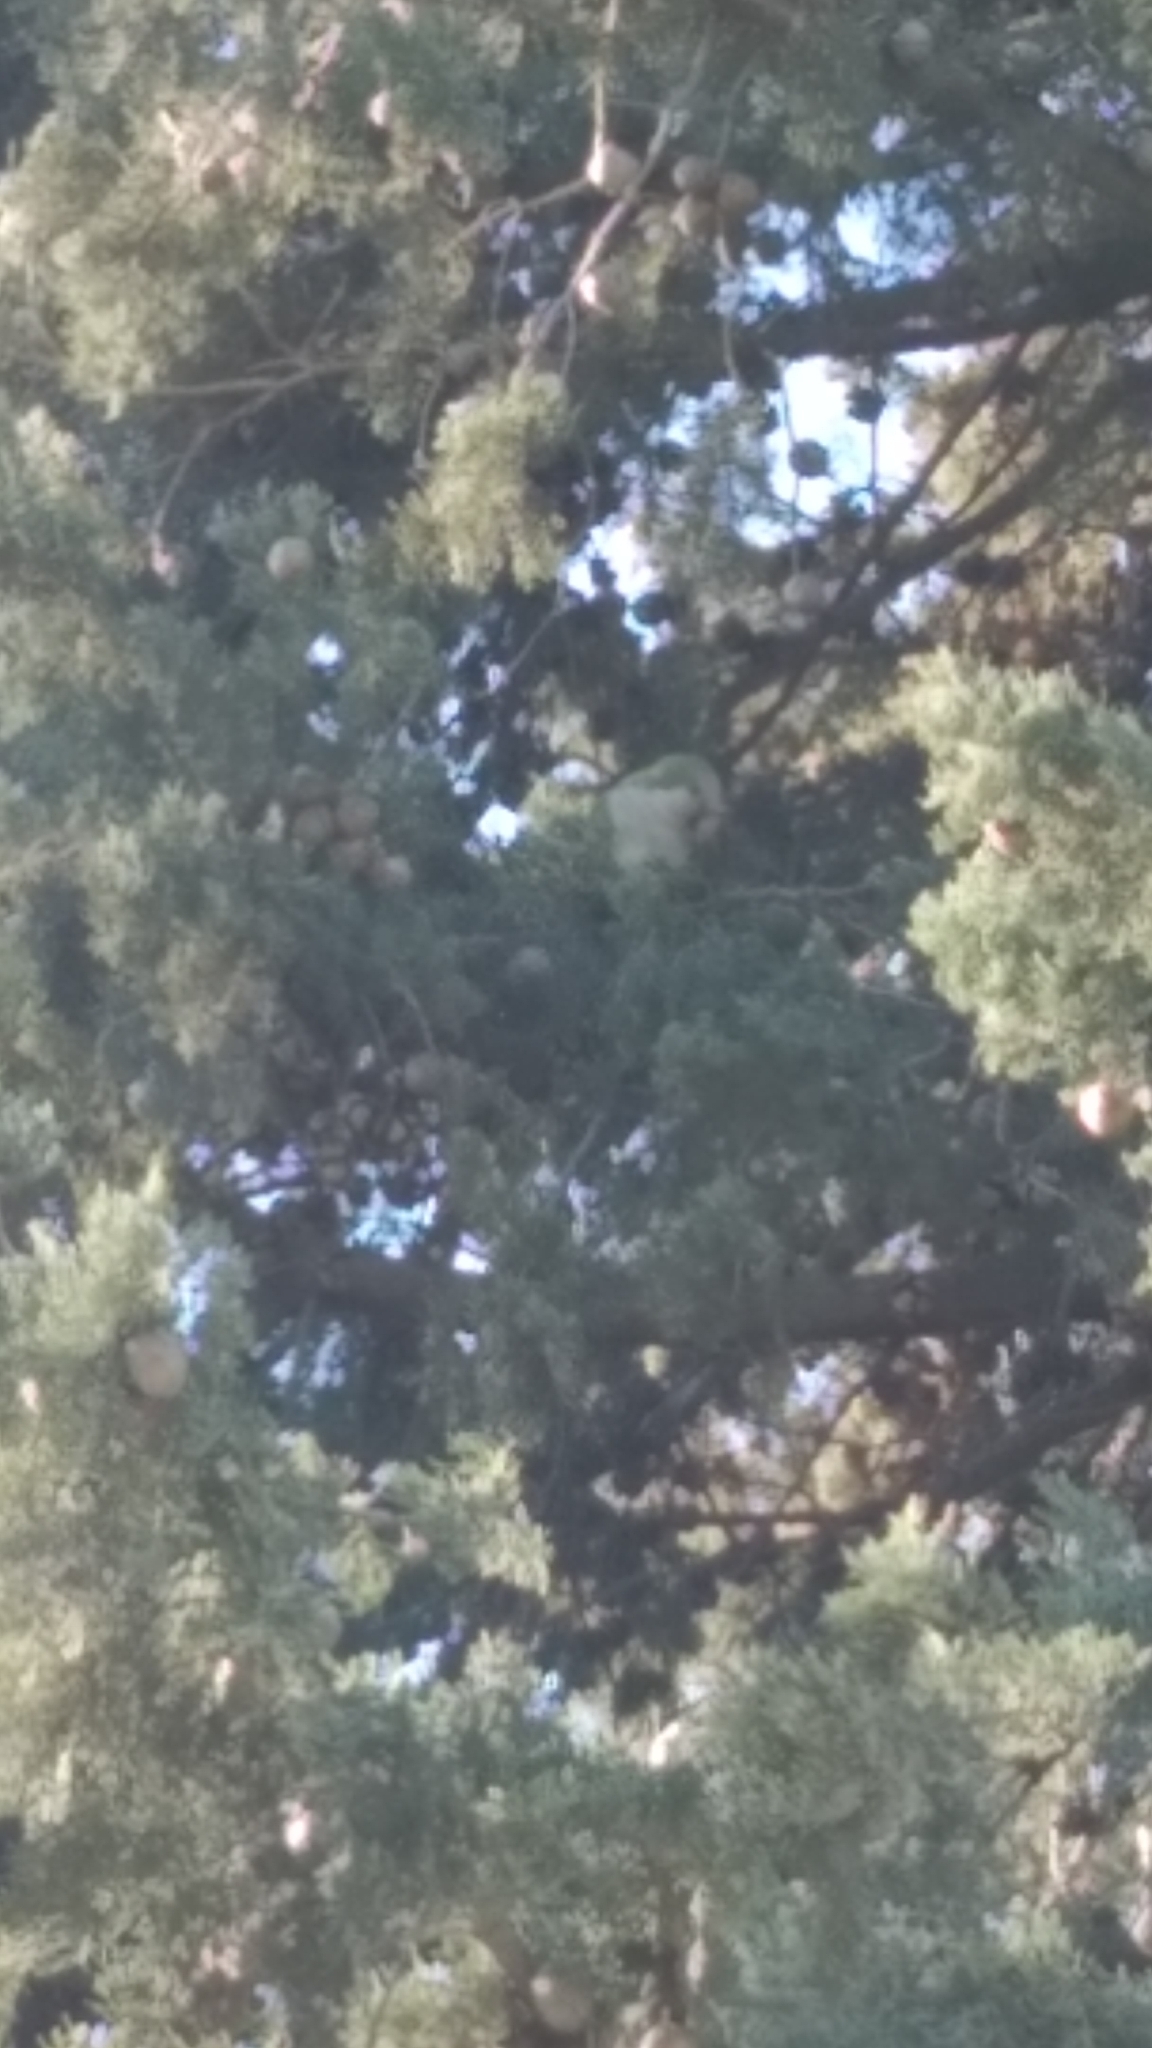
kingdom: Animalia
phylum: Chordata
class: Aves
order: Psittaciformes
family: Psittacidae
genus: Myiopsitta
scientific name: Myiopsitta monachus
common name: Monk parakeet
